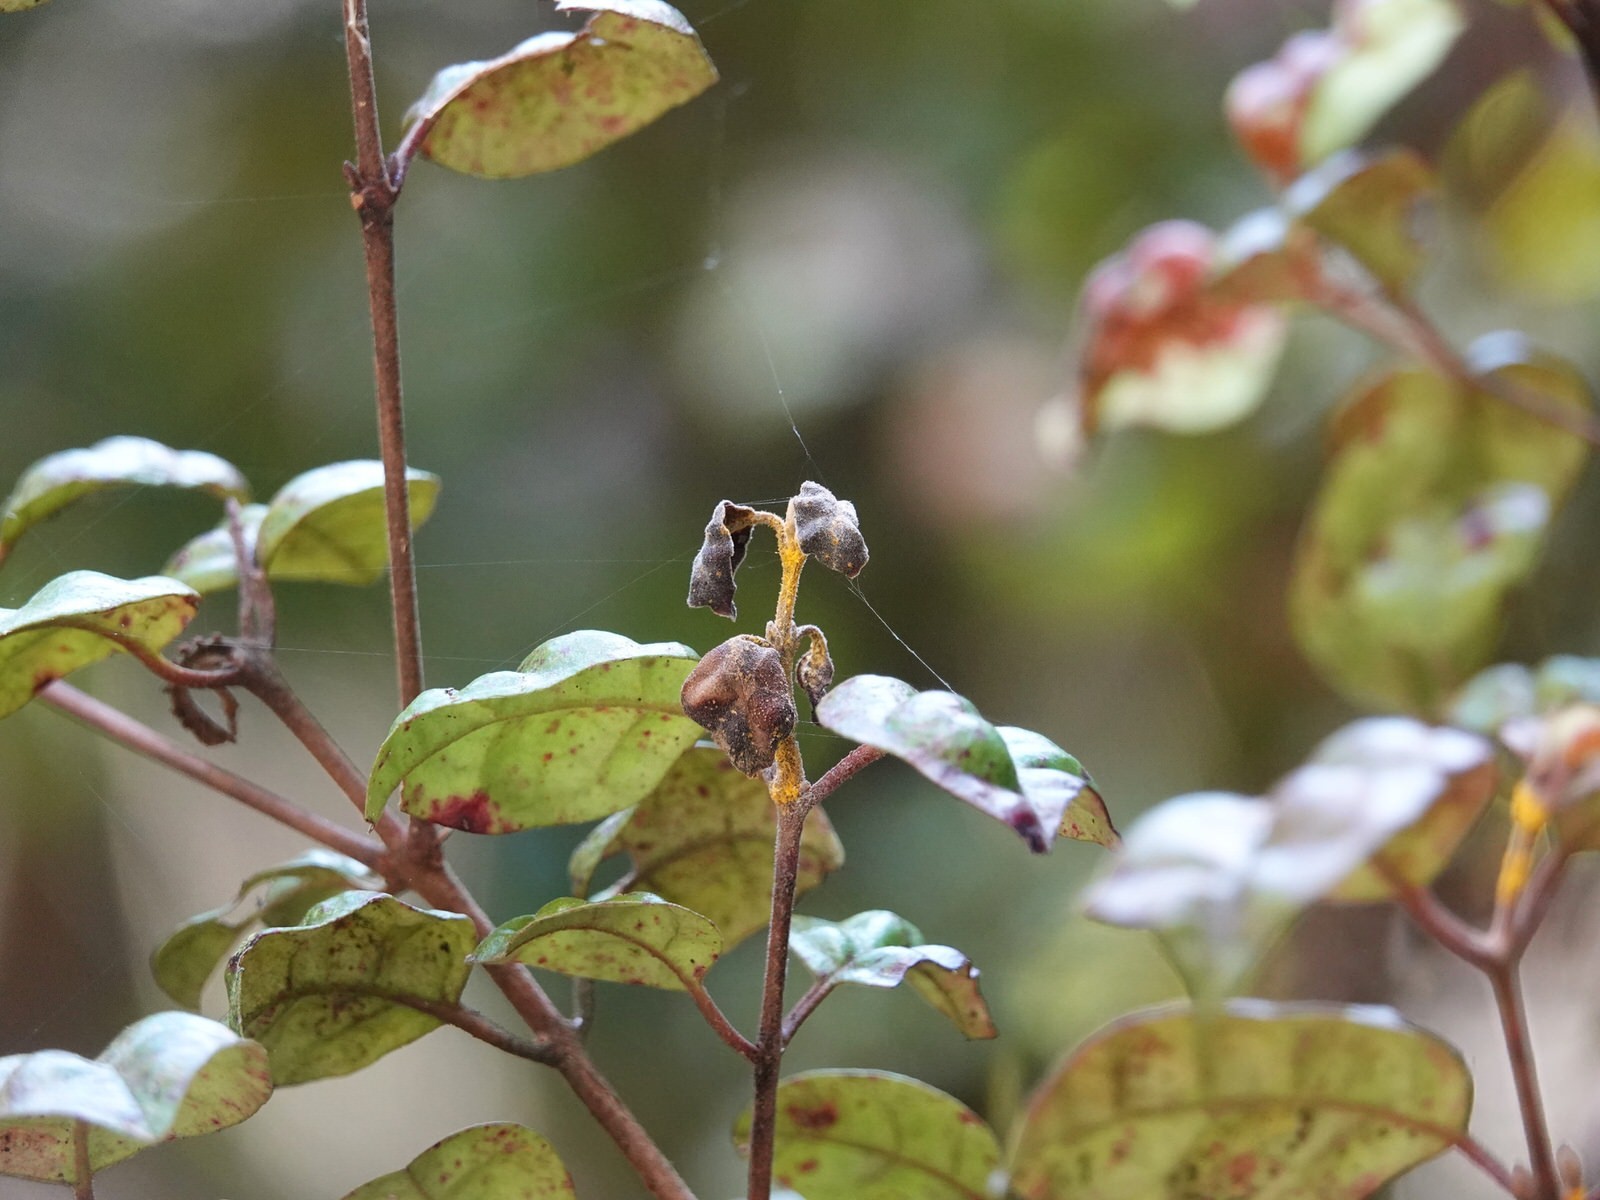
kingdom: Fungi
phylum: Basidiomycota
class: Pucciniomycetes
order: Pucciniales
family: Sphaerophragmiaceae
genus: Austropuccinia
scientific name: Austropuccinia psidii
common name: Myrtle rust
